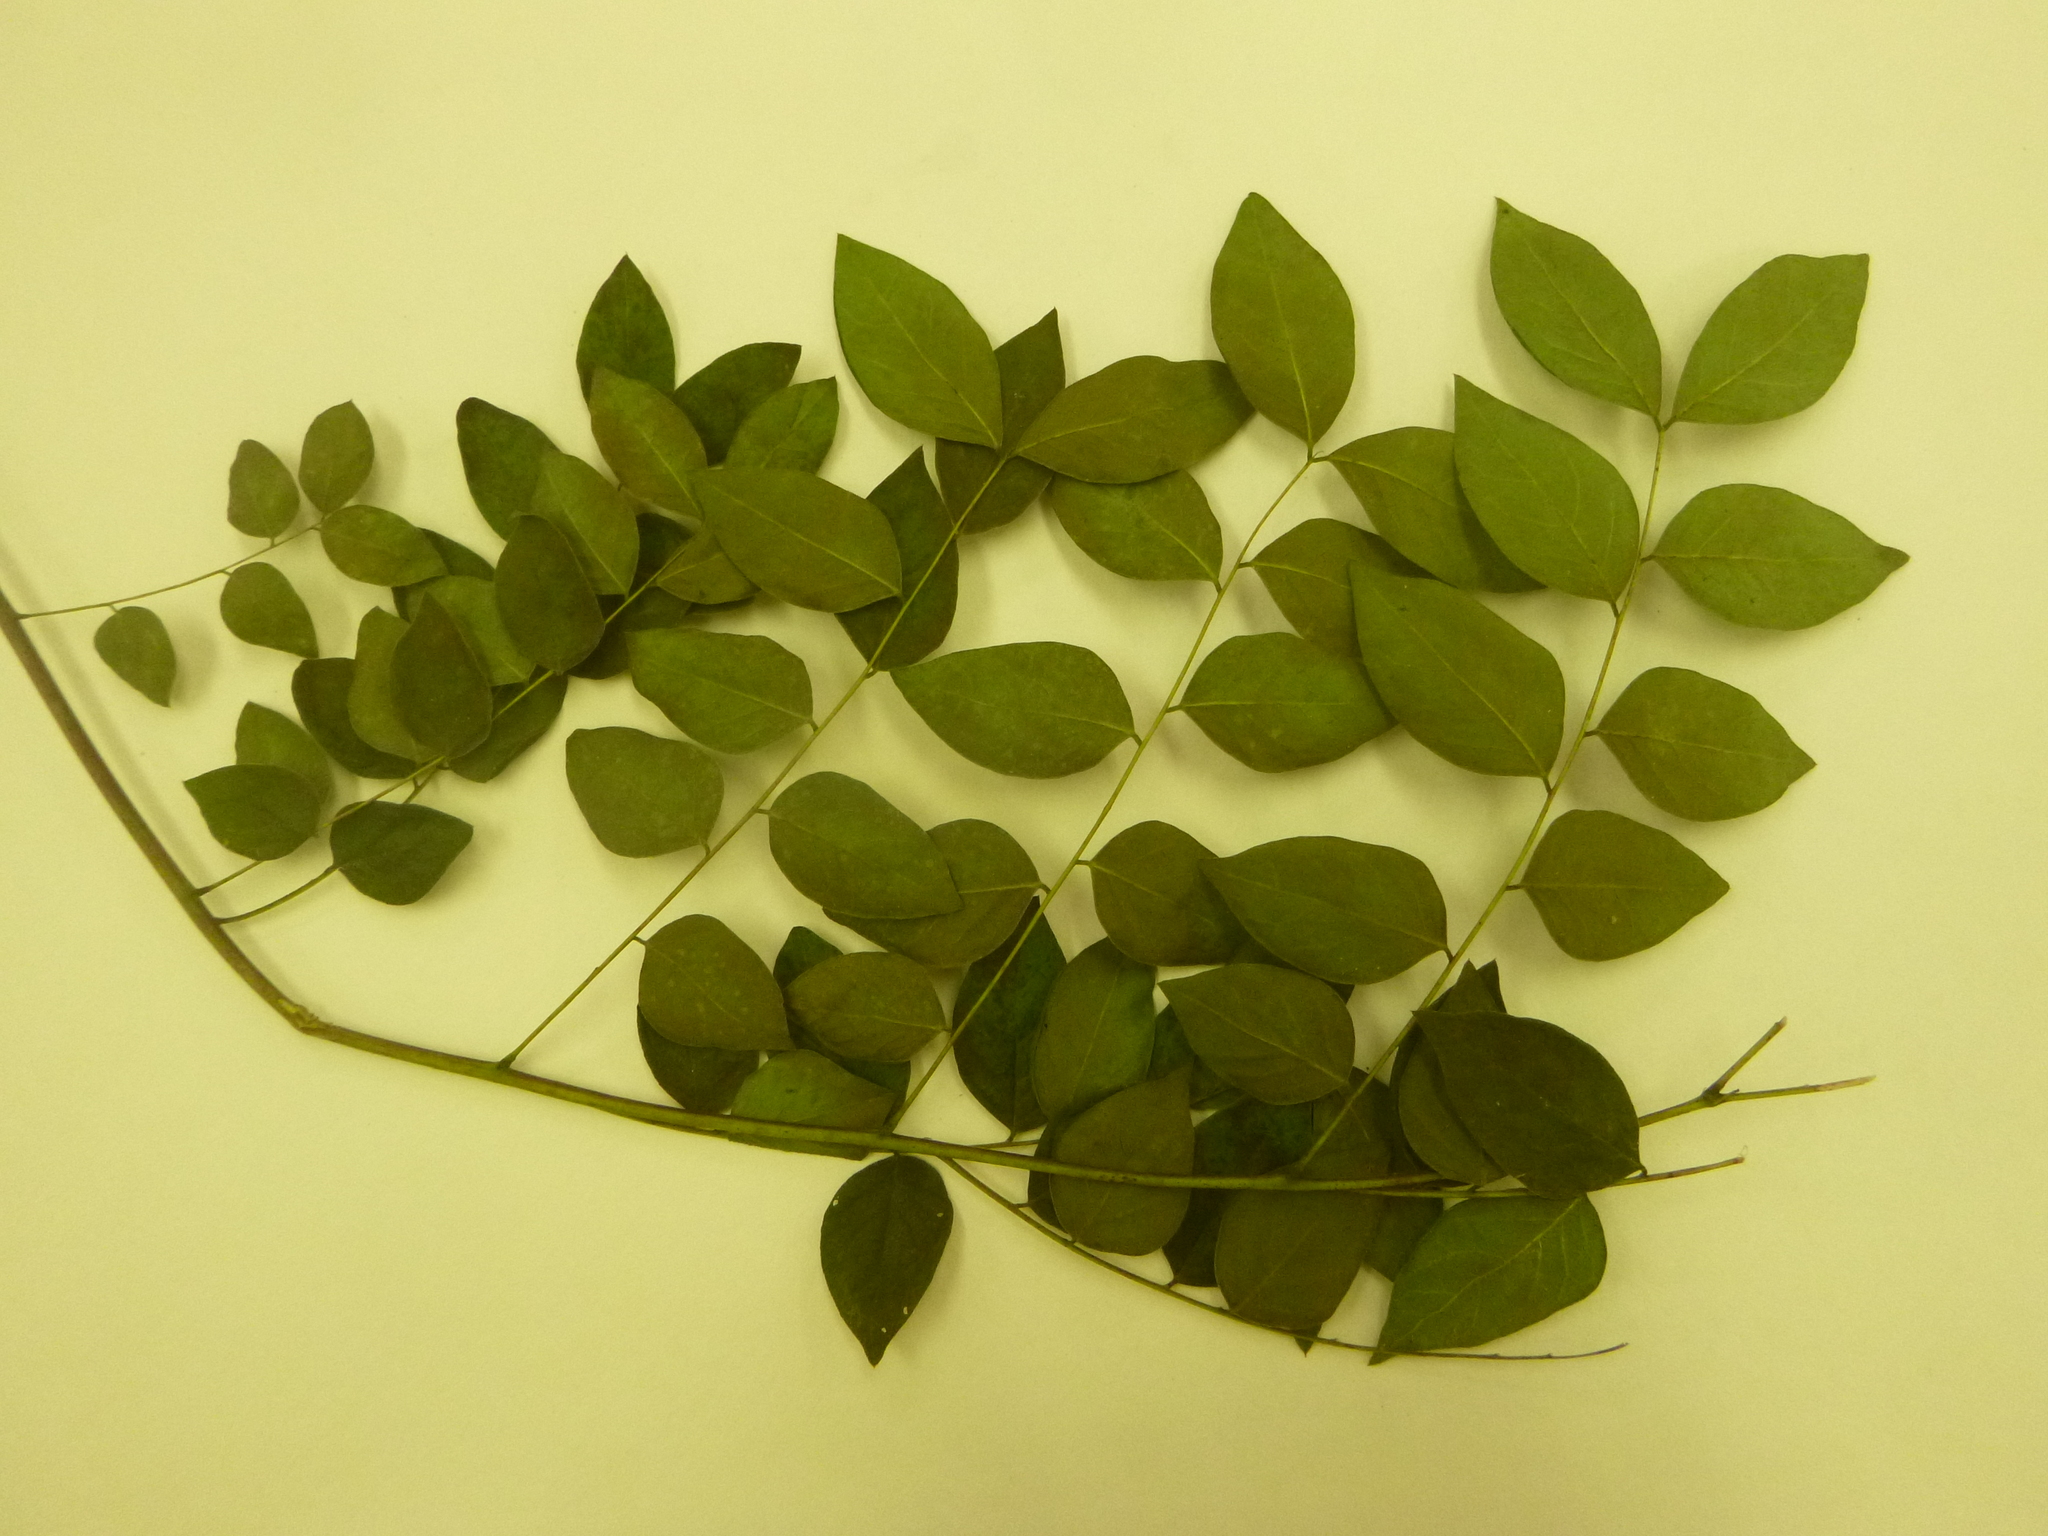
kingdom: Plantae
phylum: Tracheophyta
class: Magnoliopsida
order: Fabales
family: Fabaceae
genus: Gymnocladus
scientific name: Gymnocladus dioicus
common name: Kentucky coffee-tree
